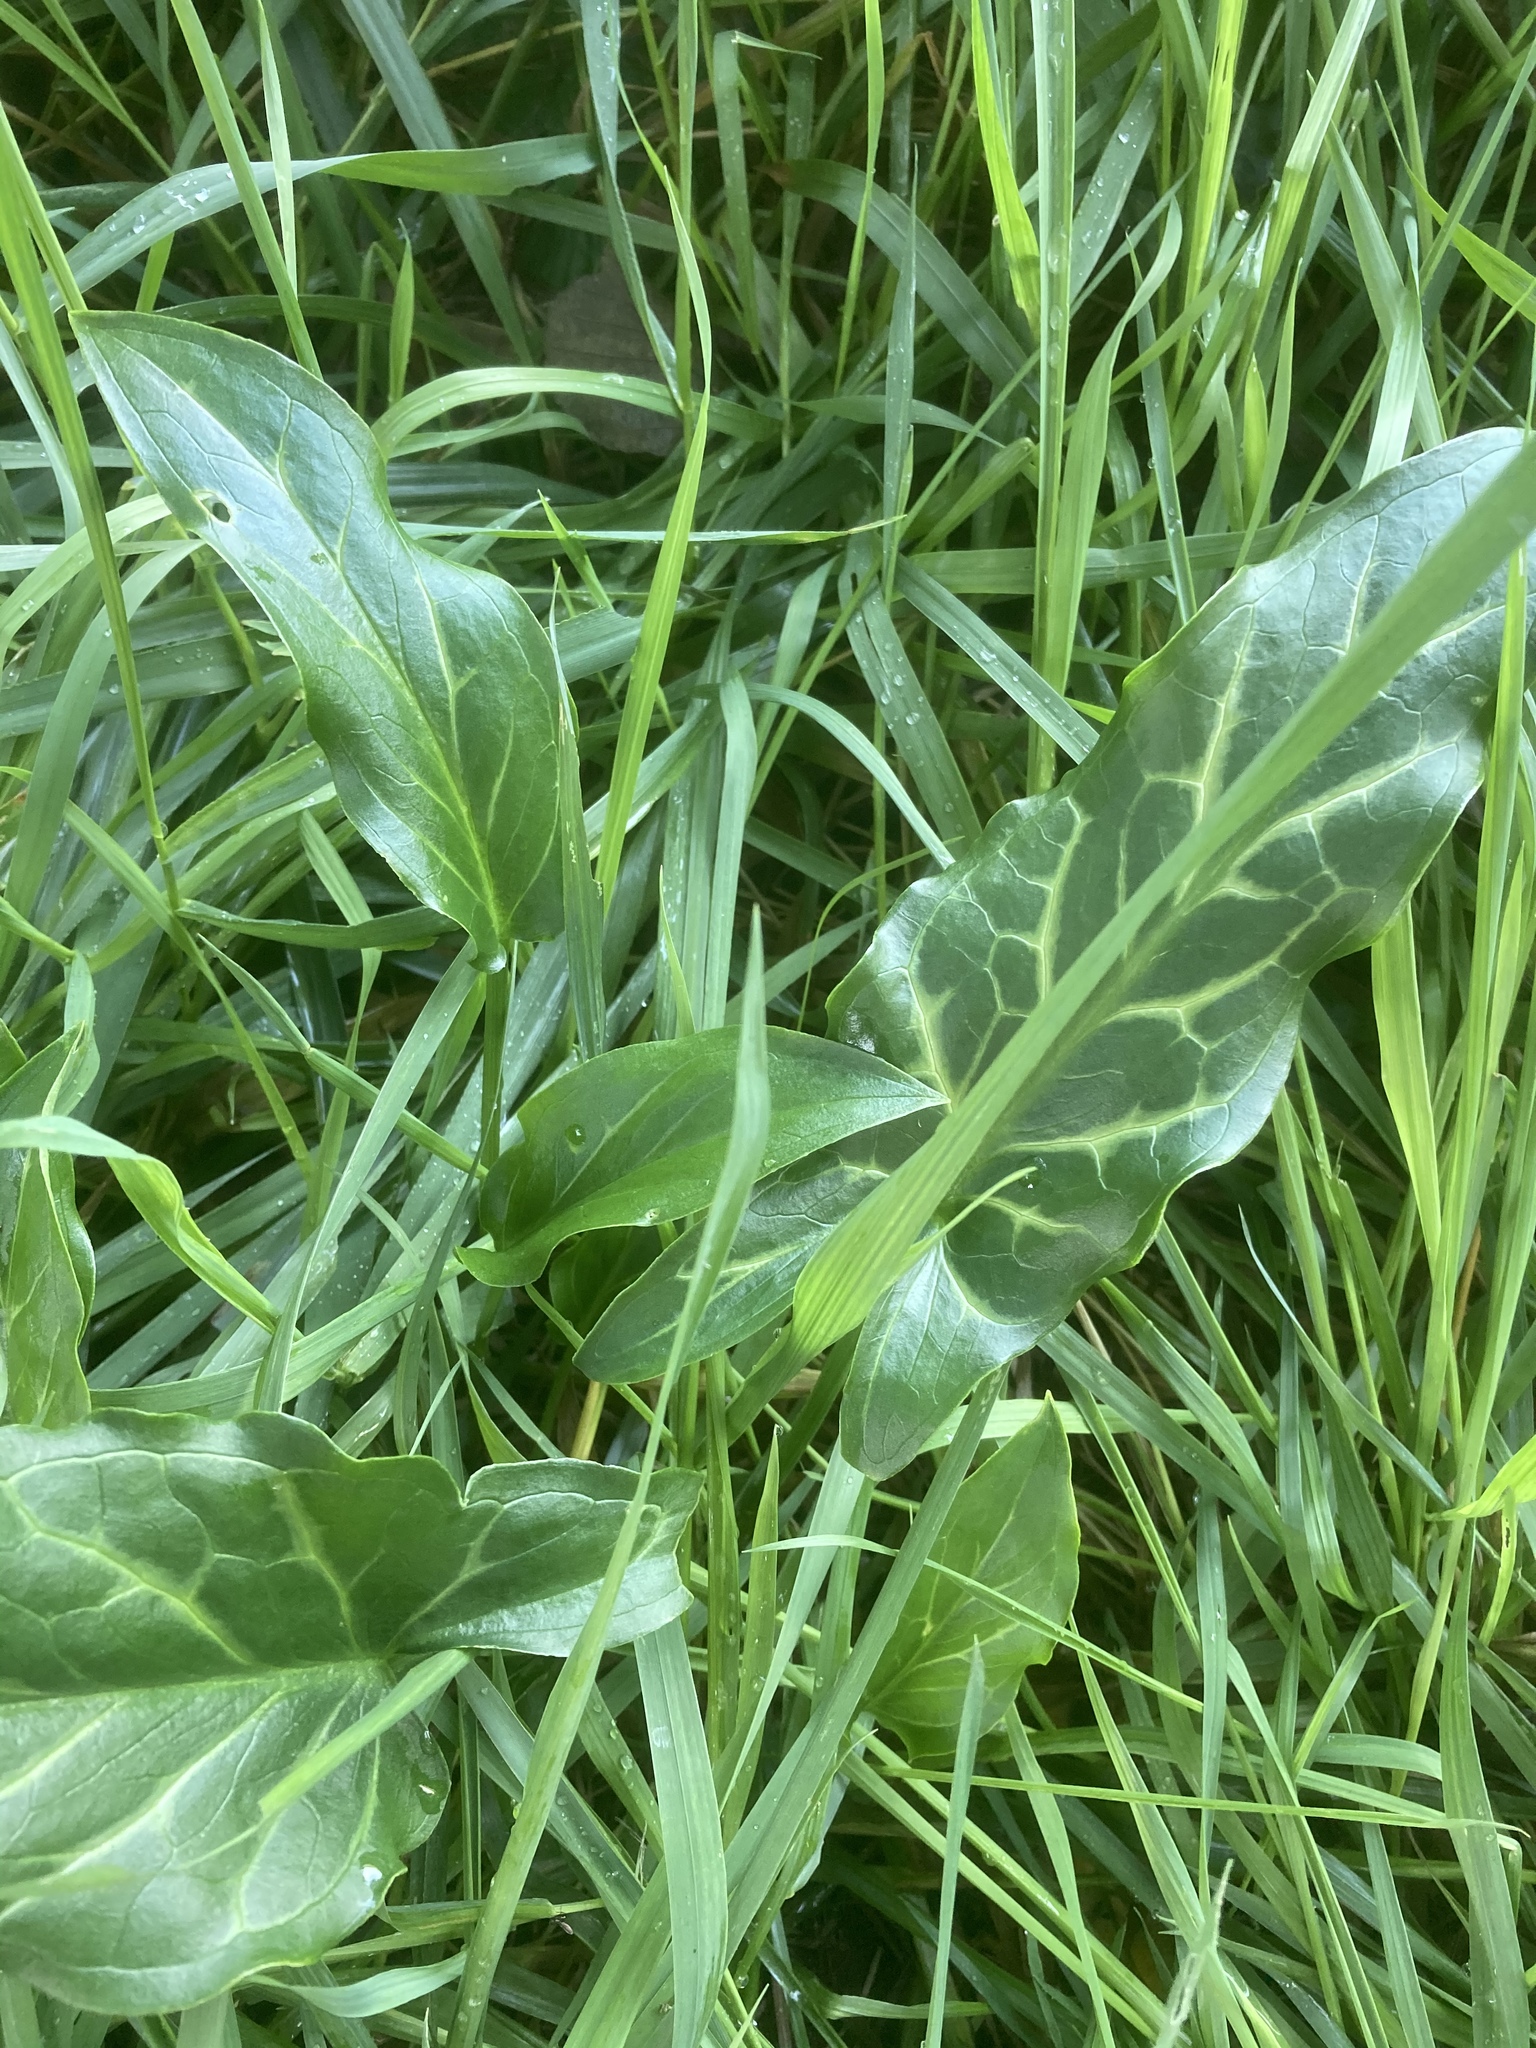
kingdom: Plantae
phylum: Tracheophyta
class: Liliopsida
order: Alismatales
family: Araceae
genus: Arum
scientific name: Arum italicum
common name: Italian lords-and-ladies
